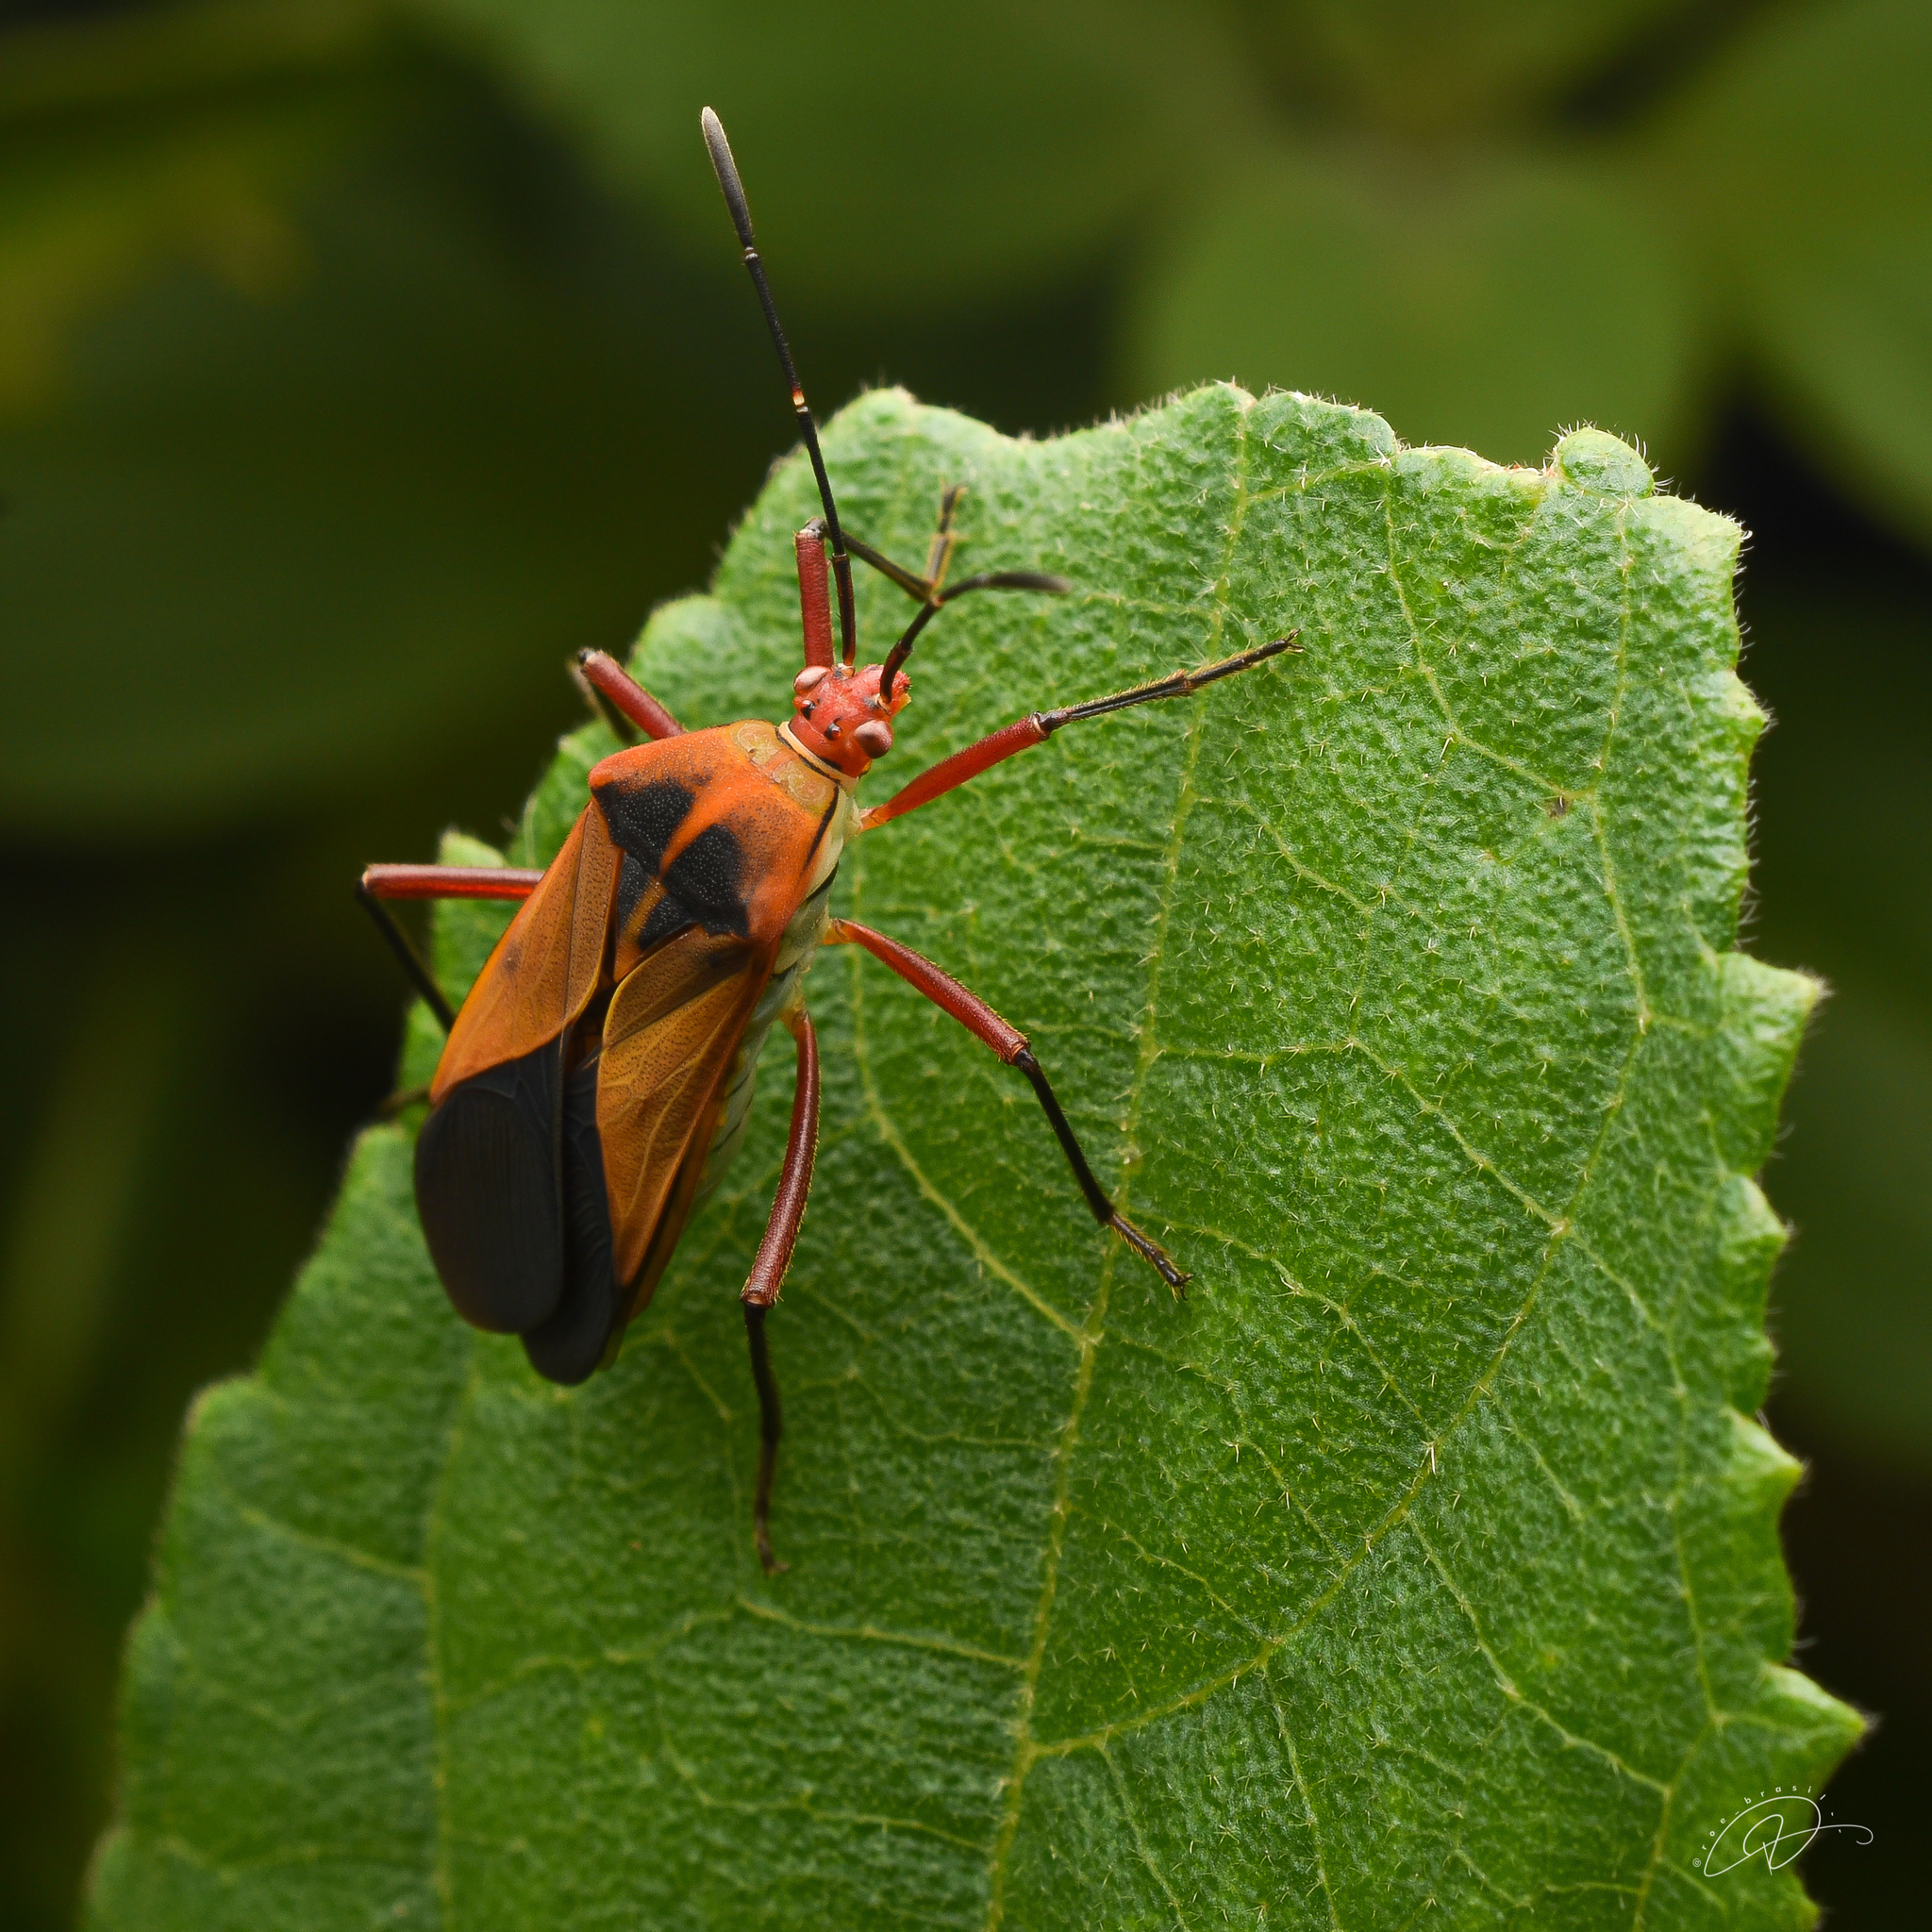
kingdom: Animalia
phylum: Arthropoda
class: Insecta
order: Hemiptera
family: Coreidae
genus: Hypselonotus
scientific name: Hypselonotus bitrianguliger
